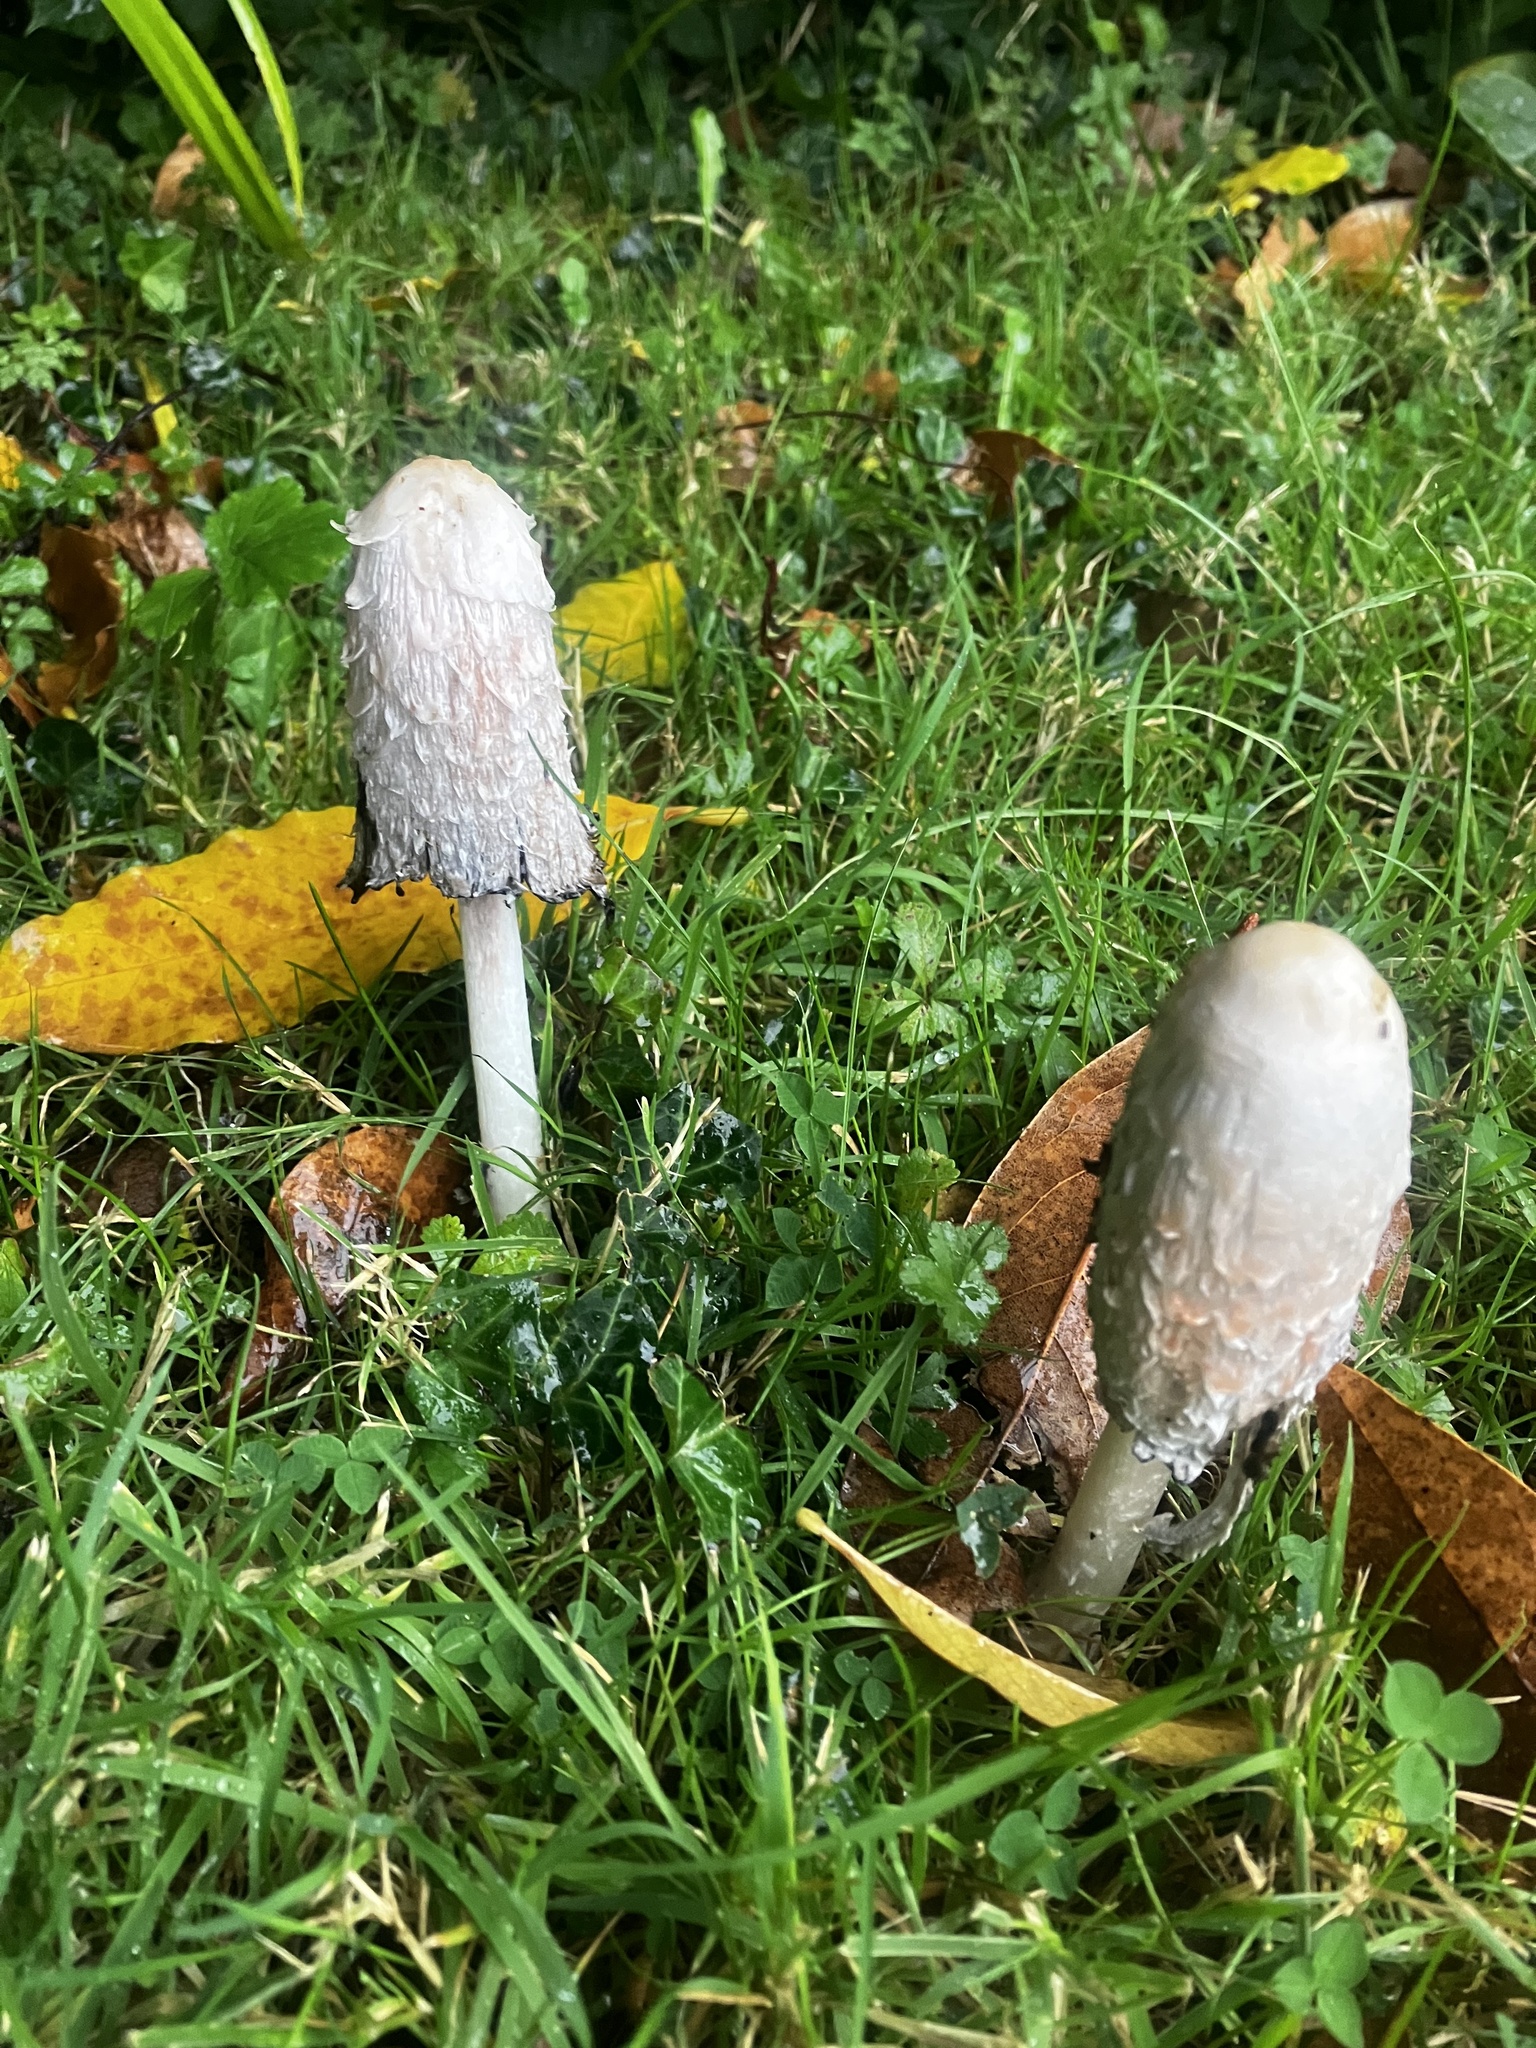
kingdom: Fungi
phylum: Basidiomycota
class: Agaricomycetes
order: Agaricales
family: Agaricaceae
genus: Coprinus
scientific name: Coprinus comatus
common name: Lawyer's wig
